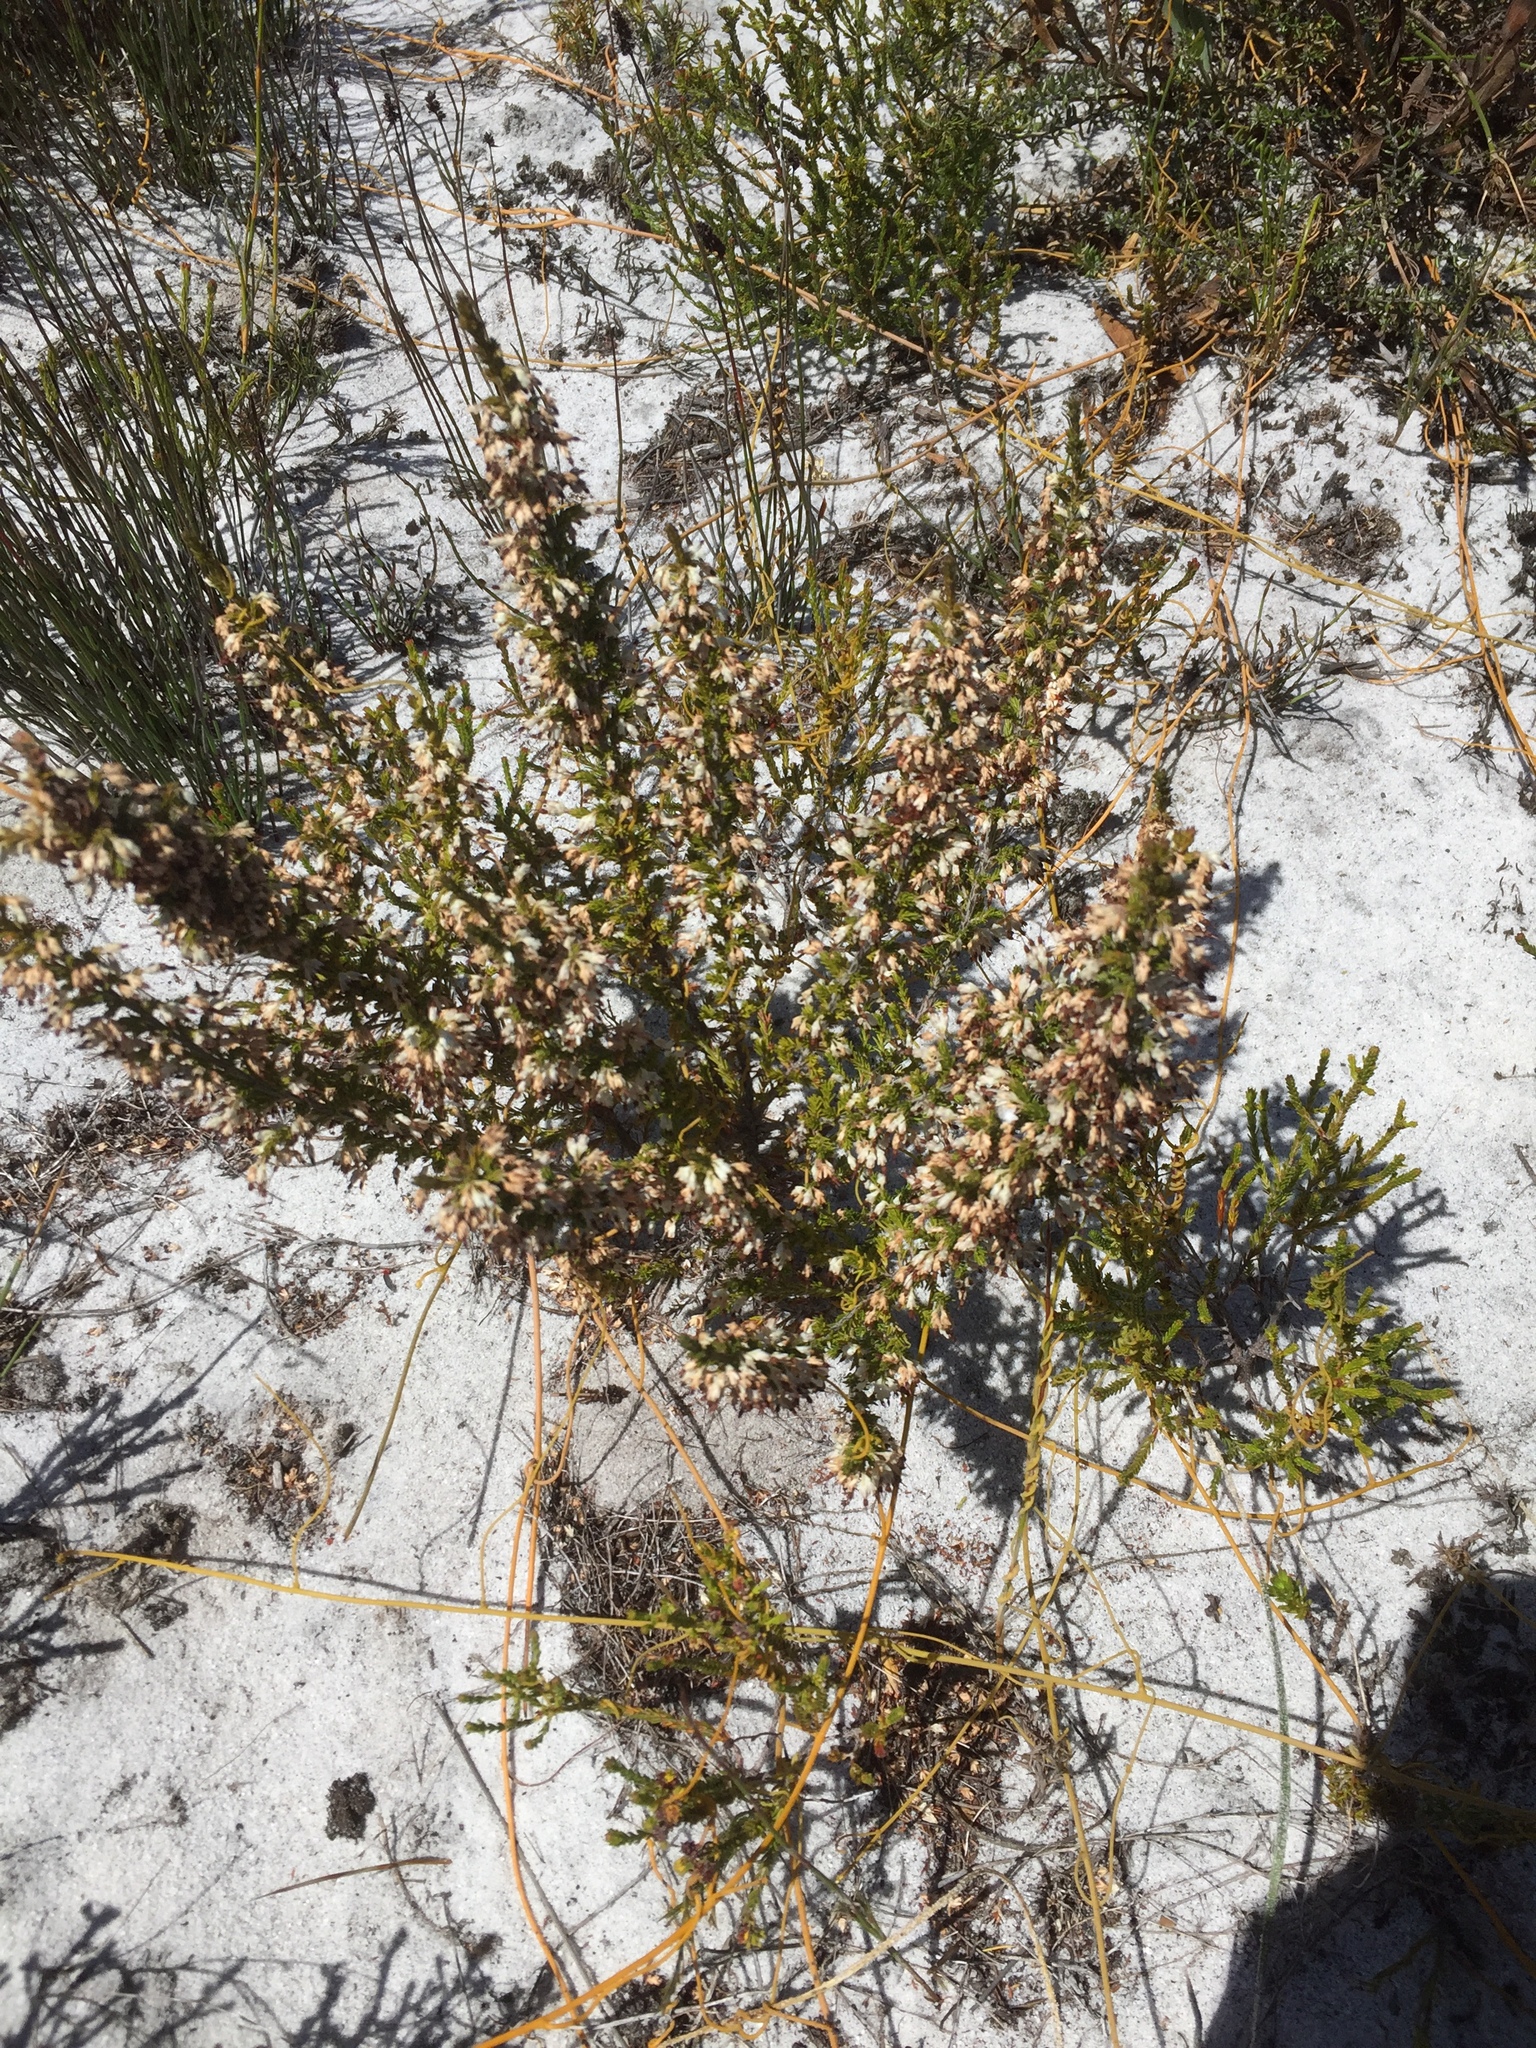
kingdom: Plantae
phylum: Tracheophyta
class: Magnoliopsida
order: Ericales
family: Ericaceae
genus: Erica
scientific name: Erica imbricata
